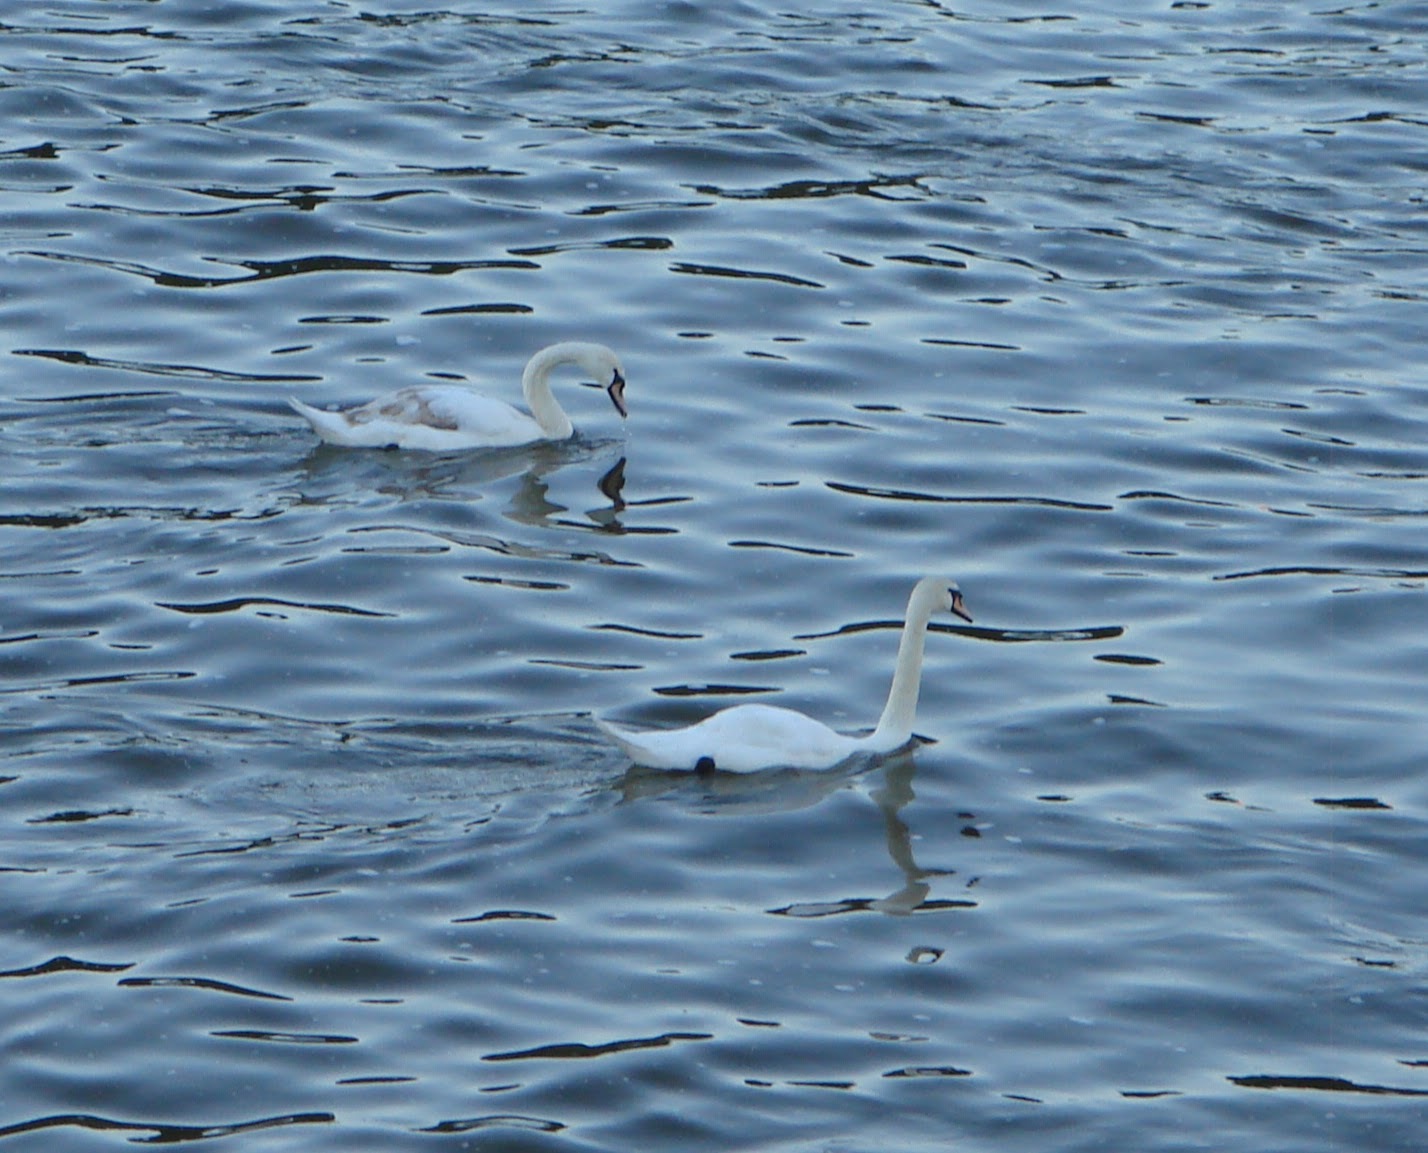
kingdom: Animalia
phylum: Chordata
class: Aves
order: Anseriformes
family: Anatidae
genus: Cygnus
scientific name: Cygnus olor
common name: Mute swan
